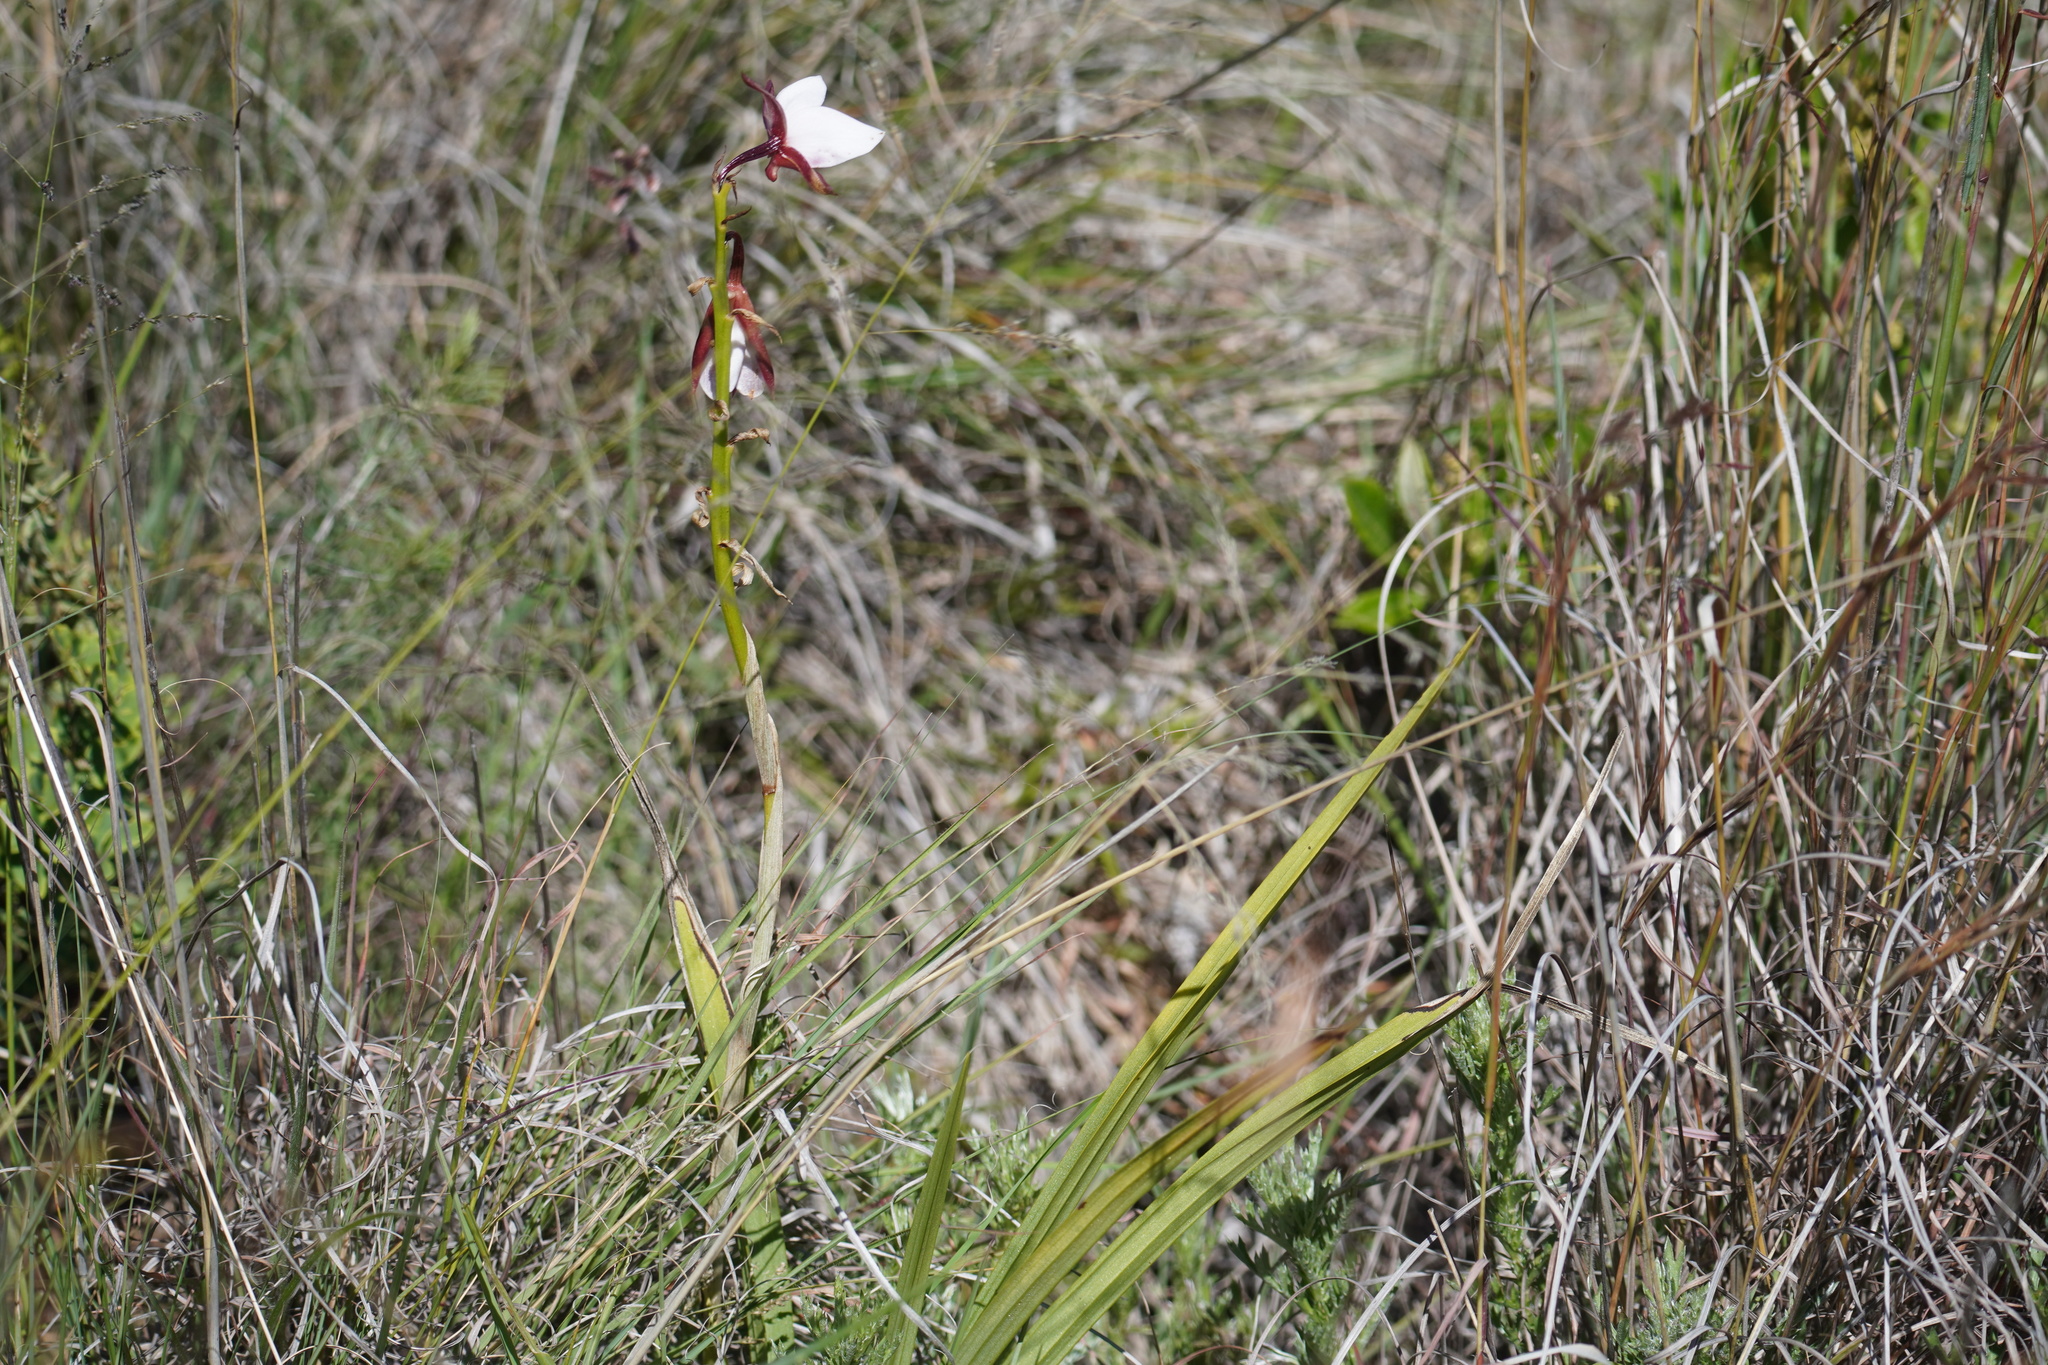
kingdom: Plantae
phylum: Tracheophyta
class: Liliopsida
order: Asparagales
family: Orchidaceae
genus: Eulophia
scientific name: Eulophia ovalis
